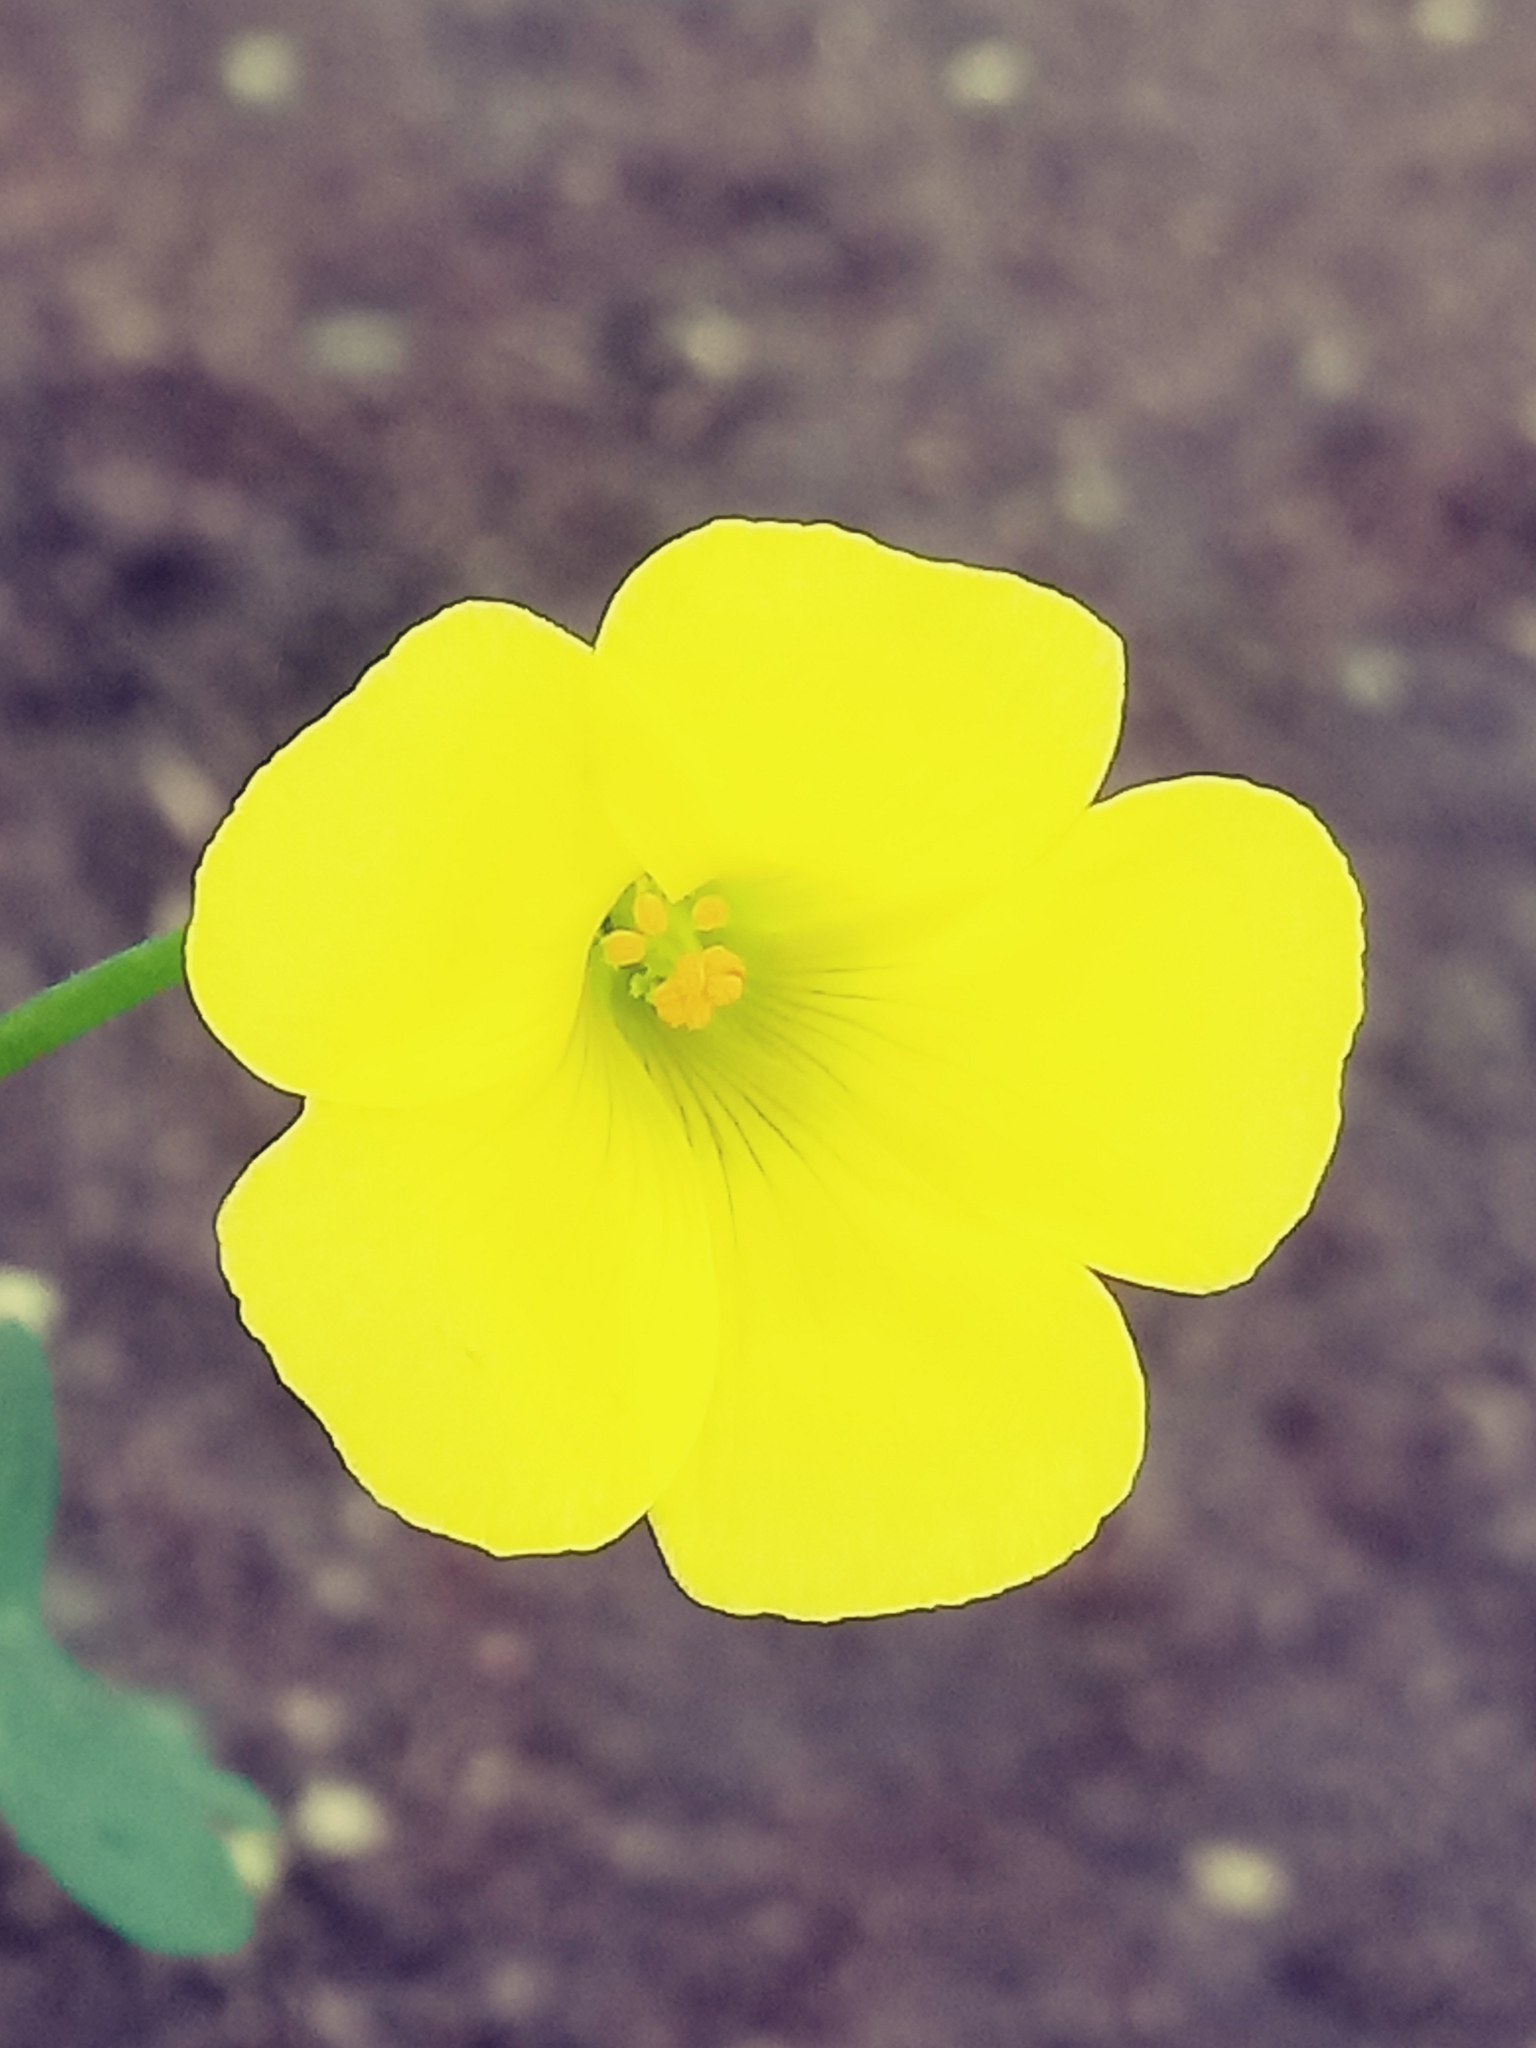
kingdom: Plantae
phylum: Tracheophyta
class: Magnoliopsida
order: Oxalidales
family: Oxalidaceae
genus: Oxalis
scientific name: Oxalis pes-caprae
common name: Bermuda-buttercup
